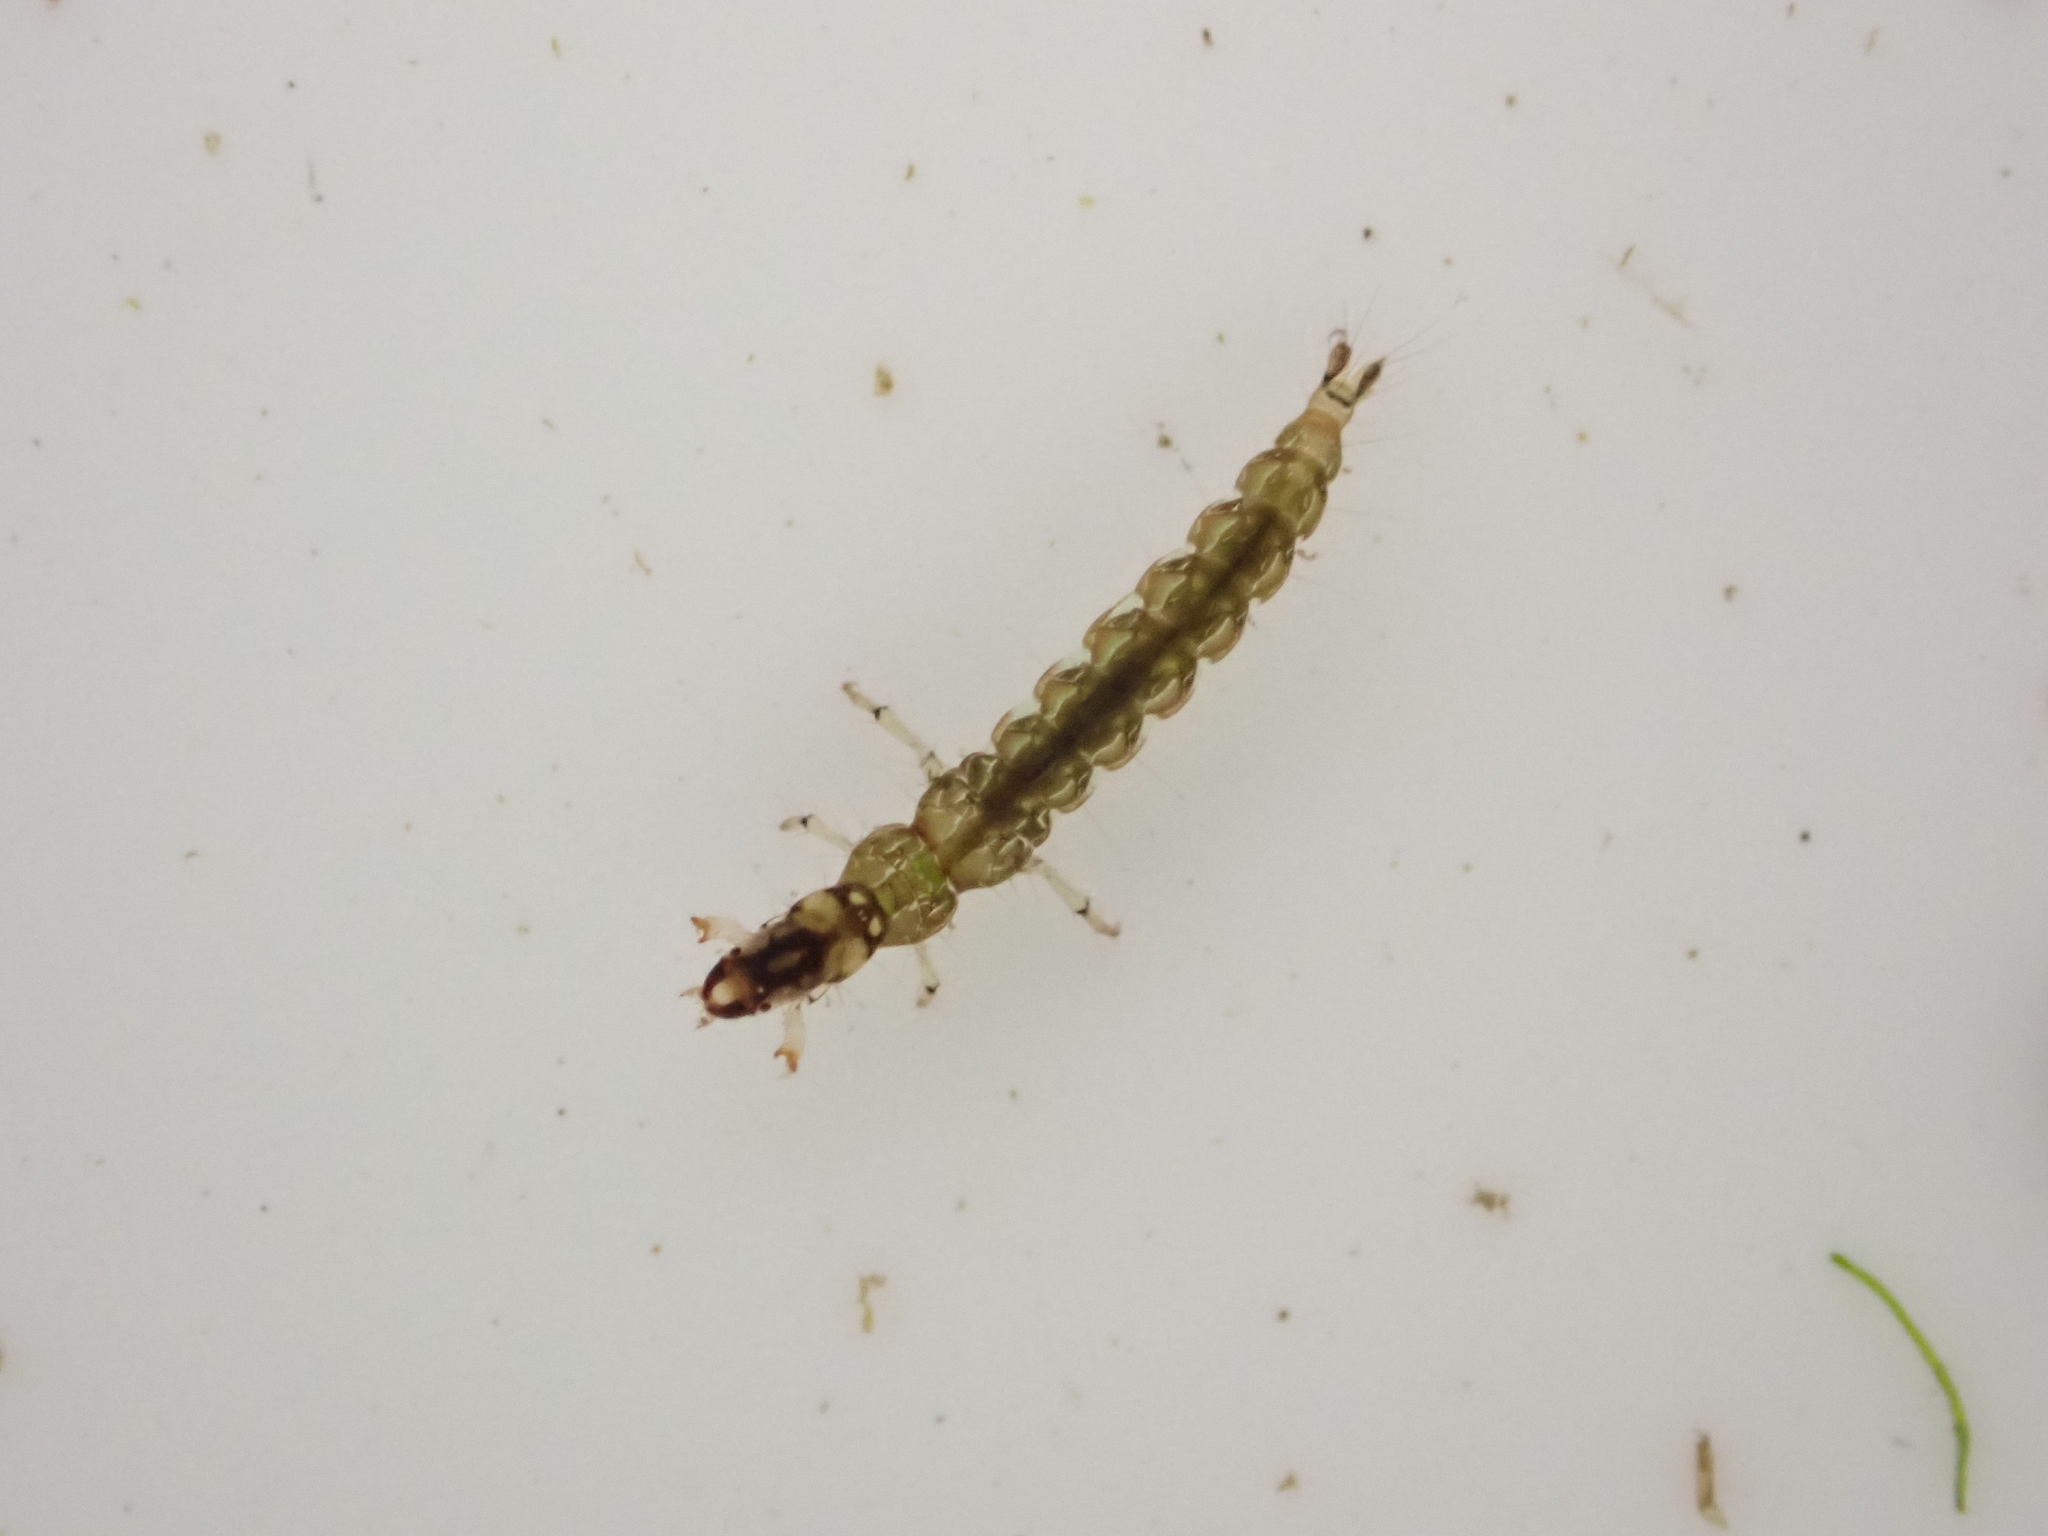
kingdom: Animalia
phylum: Arthropoda
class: Insecta
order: Trichoptera
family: Hydrobiosidae
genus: Neurochorema
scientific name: Neurochorema armstrongi
